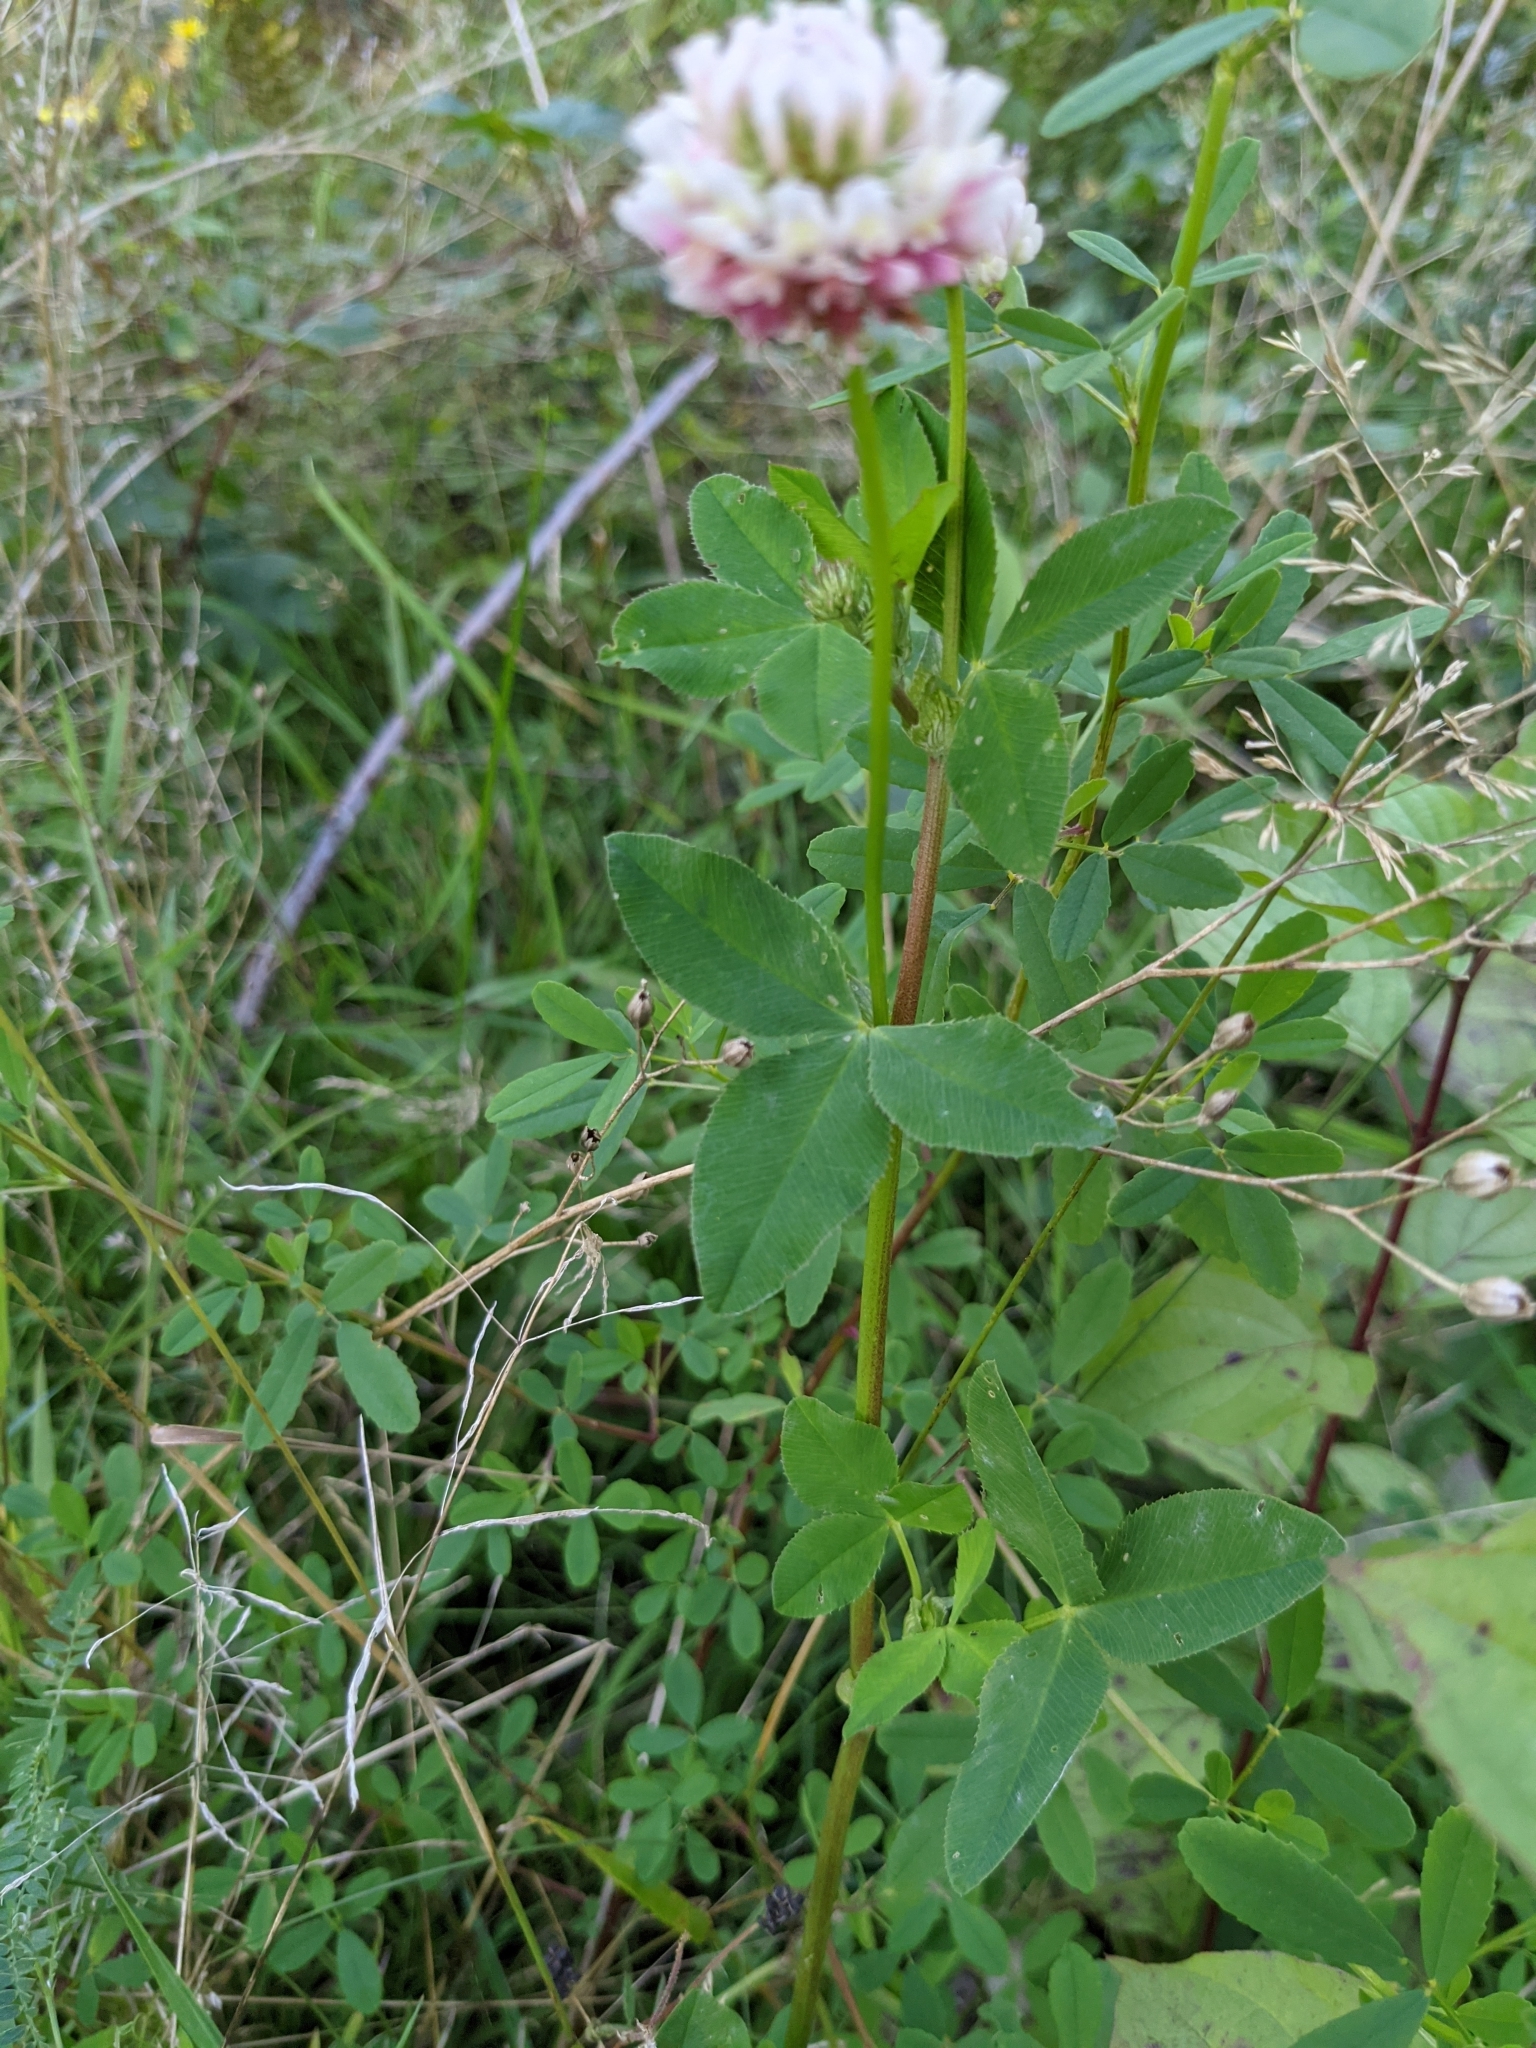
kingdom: Plantae
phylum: Tracheophyta
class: Magnoliopsida
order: Fabales
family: Fabaceae
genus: Trifolium
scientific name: Trifolium hybridum
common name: Alsike clover
